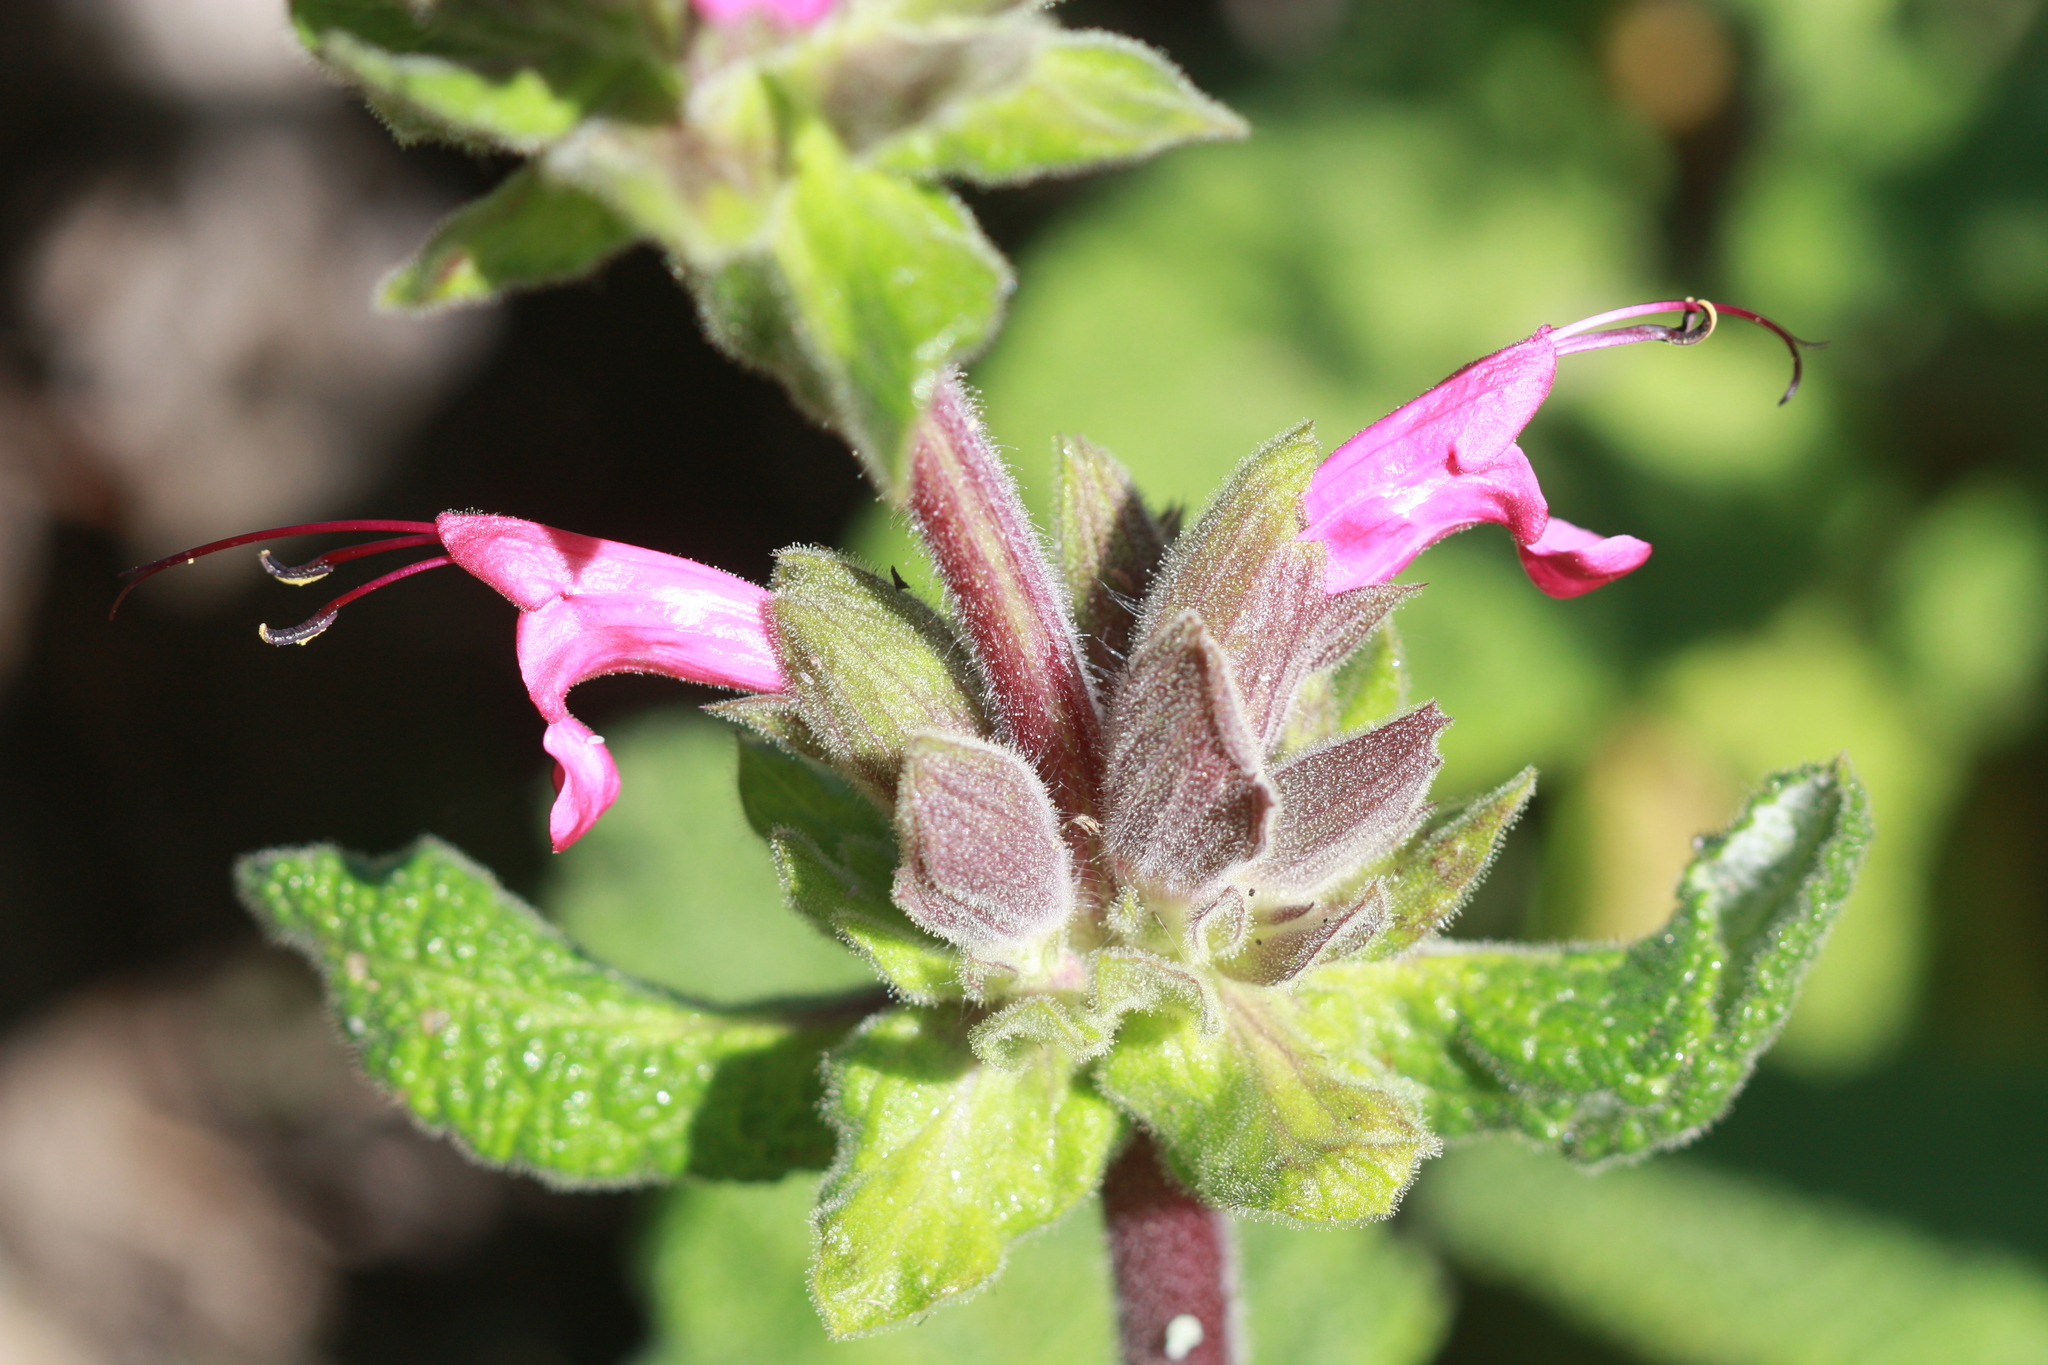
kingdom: Plantae
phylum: Tracheophyta
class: Magnoliopsida
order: Lamiales
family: Lamiaceae
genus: Salvia
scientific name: Salvia spathacea
